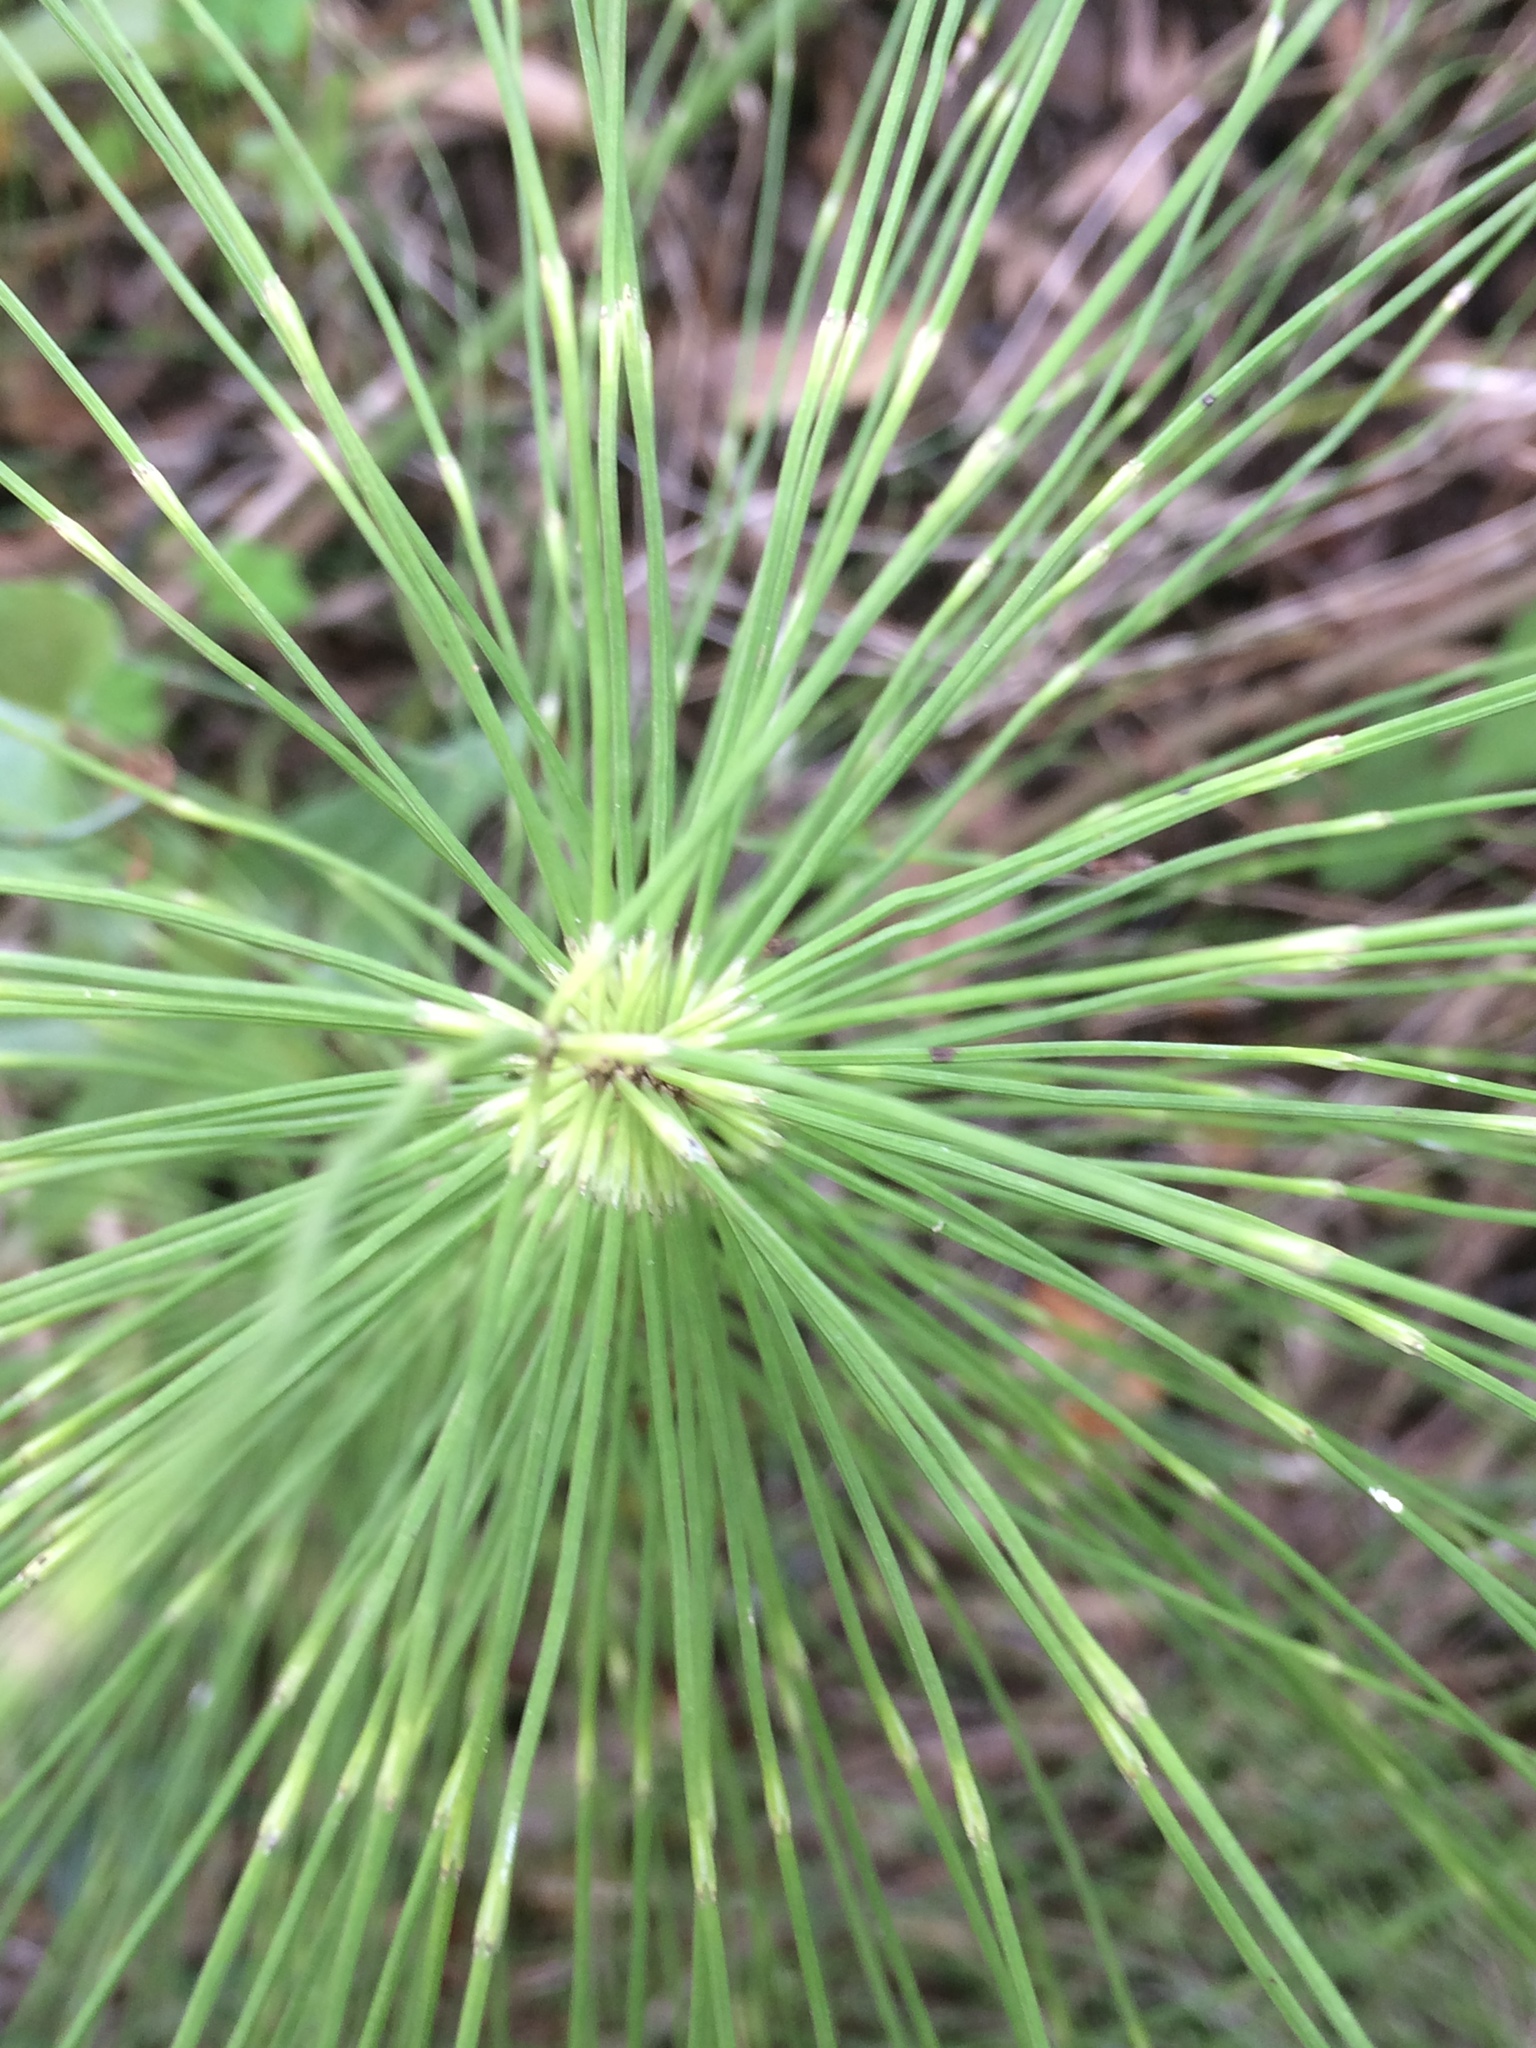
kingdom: Plantae
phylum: Tracheophyta
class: Polypodiopsida
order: Equisetales
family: Equisetaceae
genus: Equisetum
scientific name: Equisetum telmateia
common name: Great horsetail
